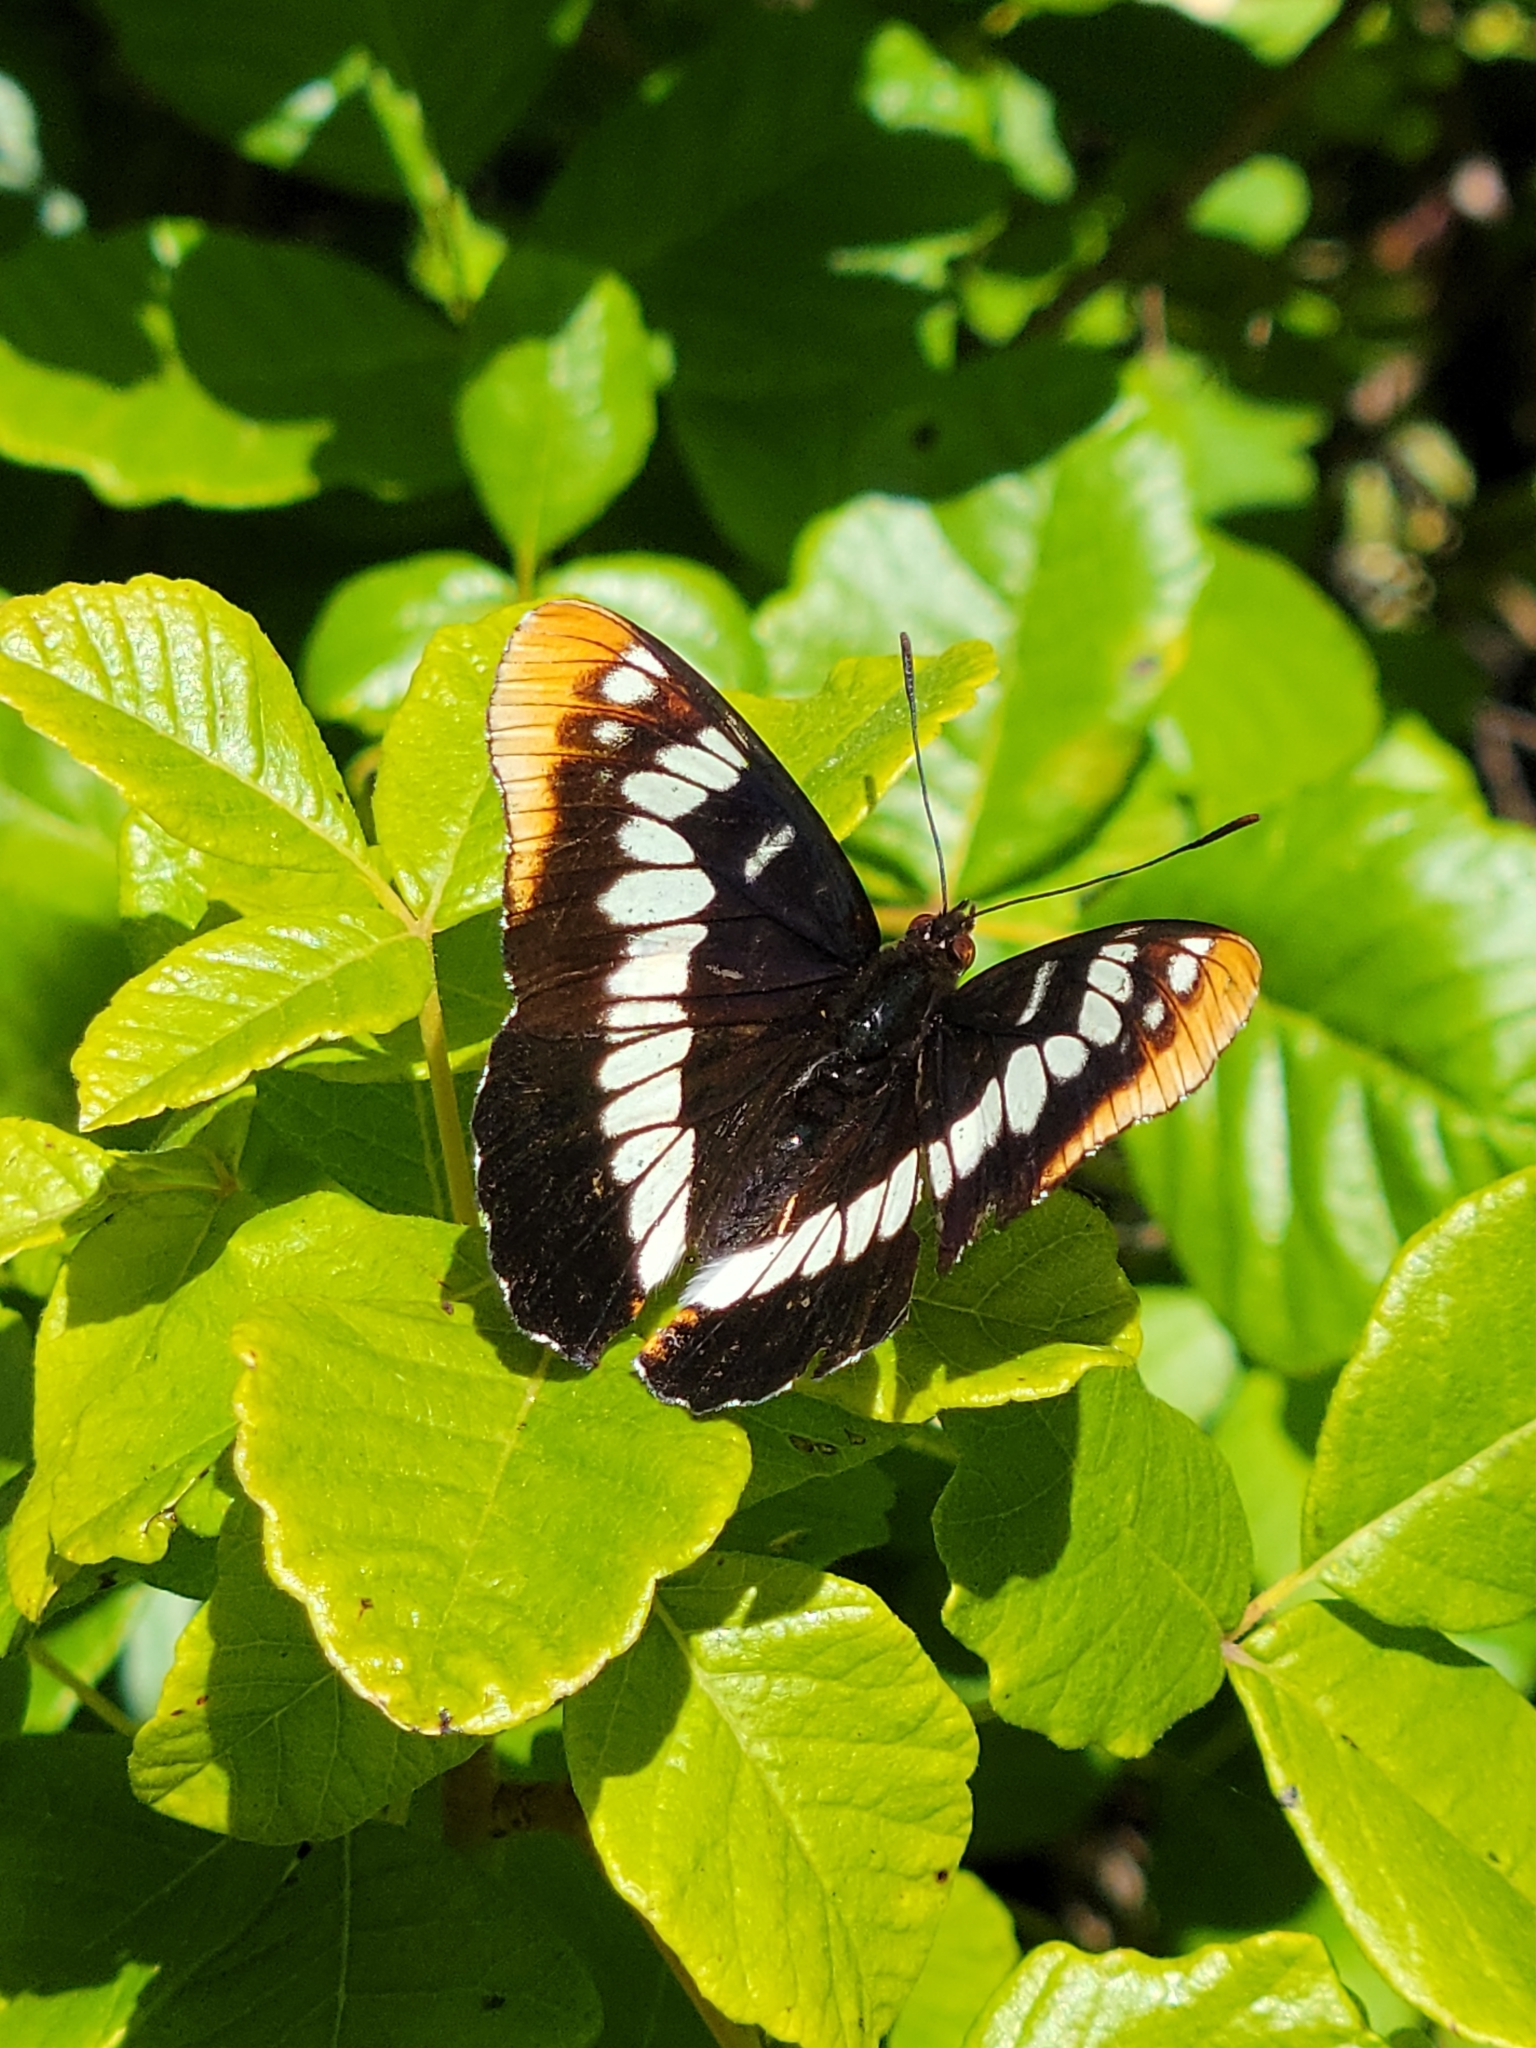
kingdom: Animalia
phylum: Arthropoda
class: Insecta
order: Lepidoptera
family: Nymphalidae
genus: Limenitis
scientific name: Limenitis lorquini
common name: Lorquin's admiral
